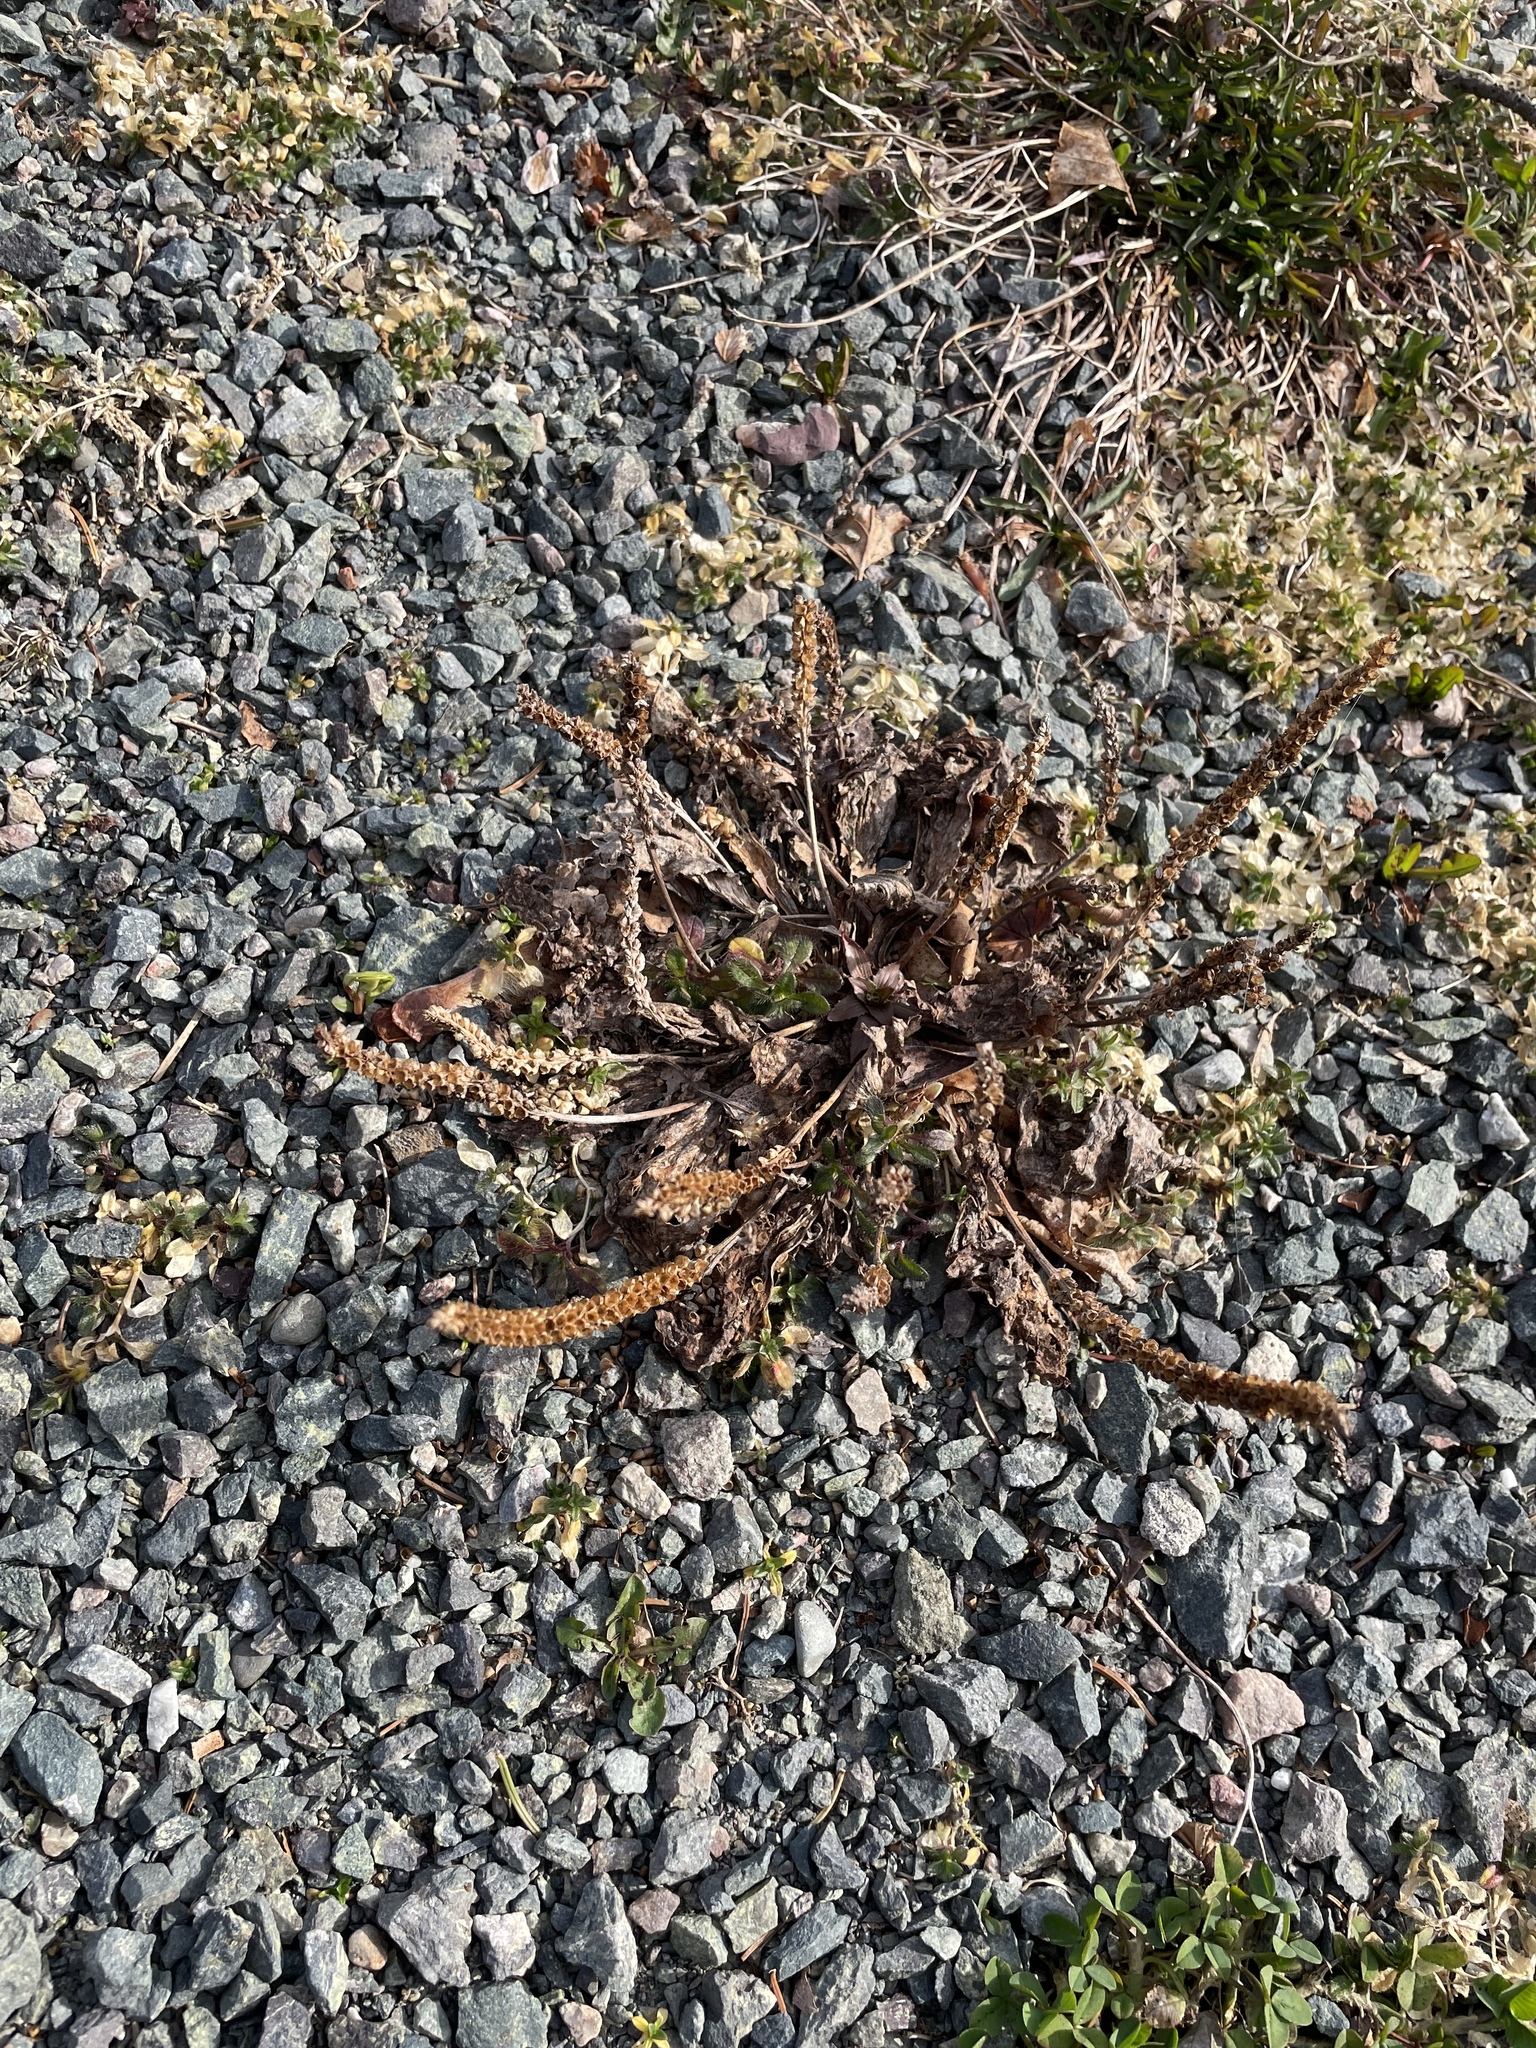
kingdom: Plantae
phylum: Tracheophyta
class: Magnoliopsida
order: Lamiales
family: Plantaginaceae
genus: Plantago
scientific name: Plantago major
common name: Common plantain
